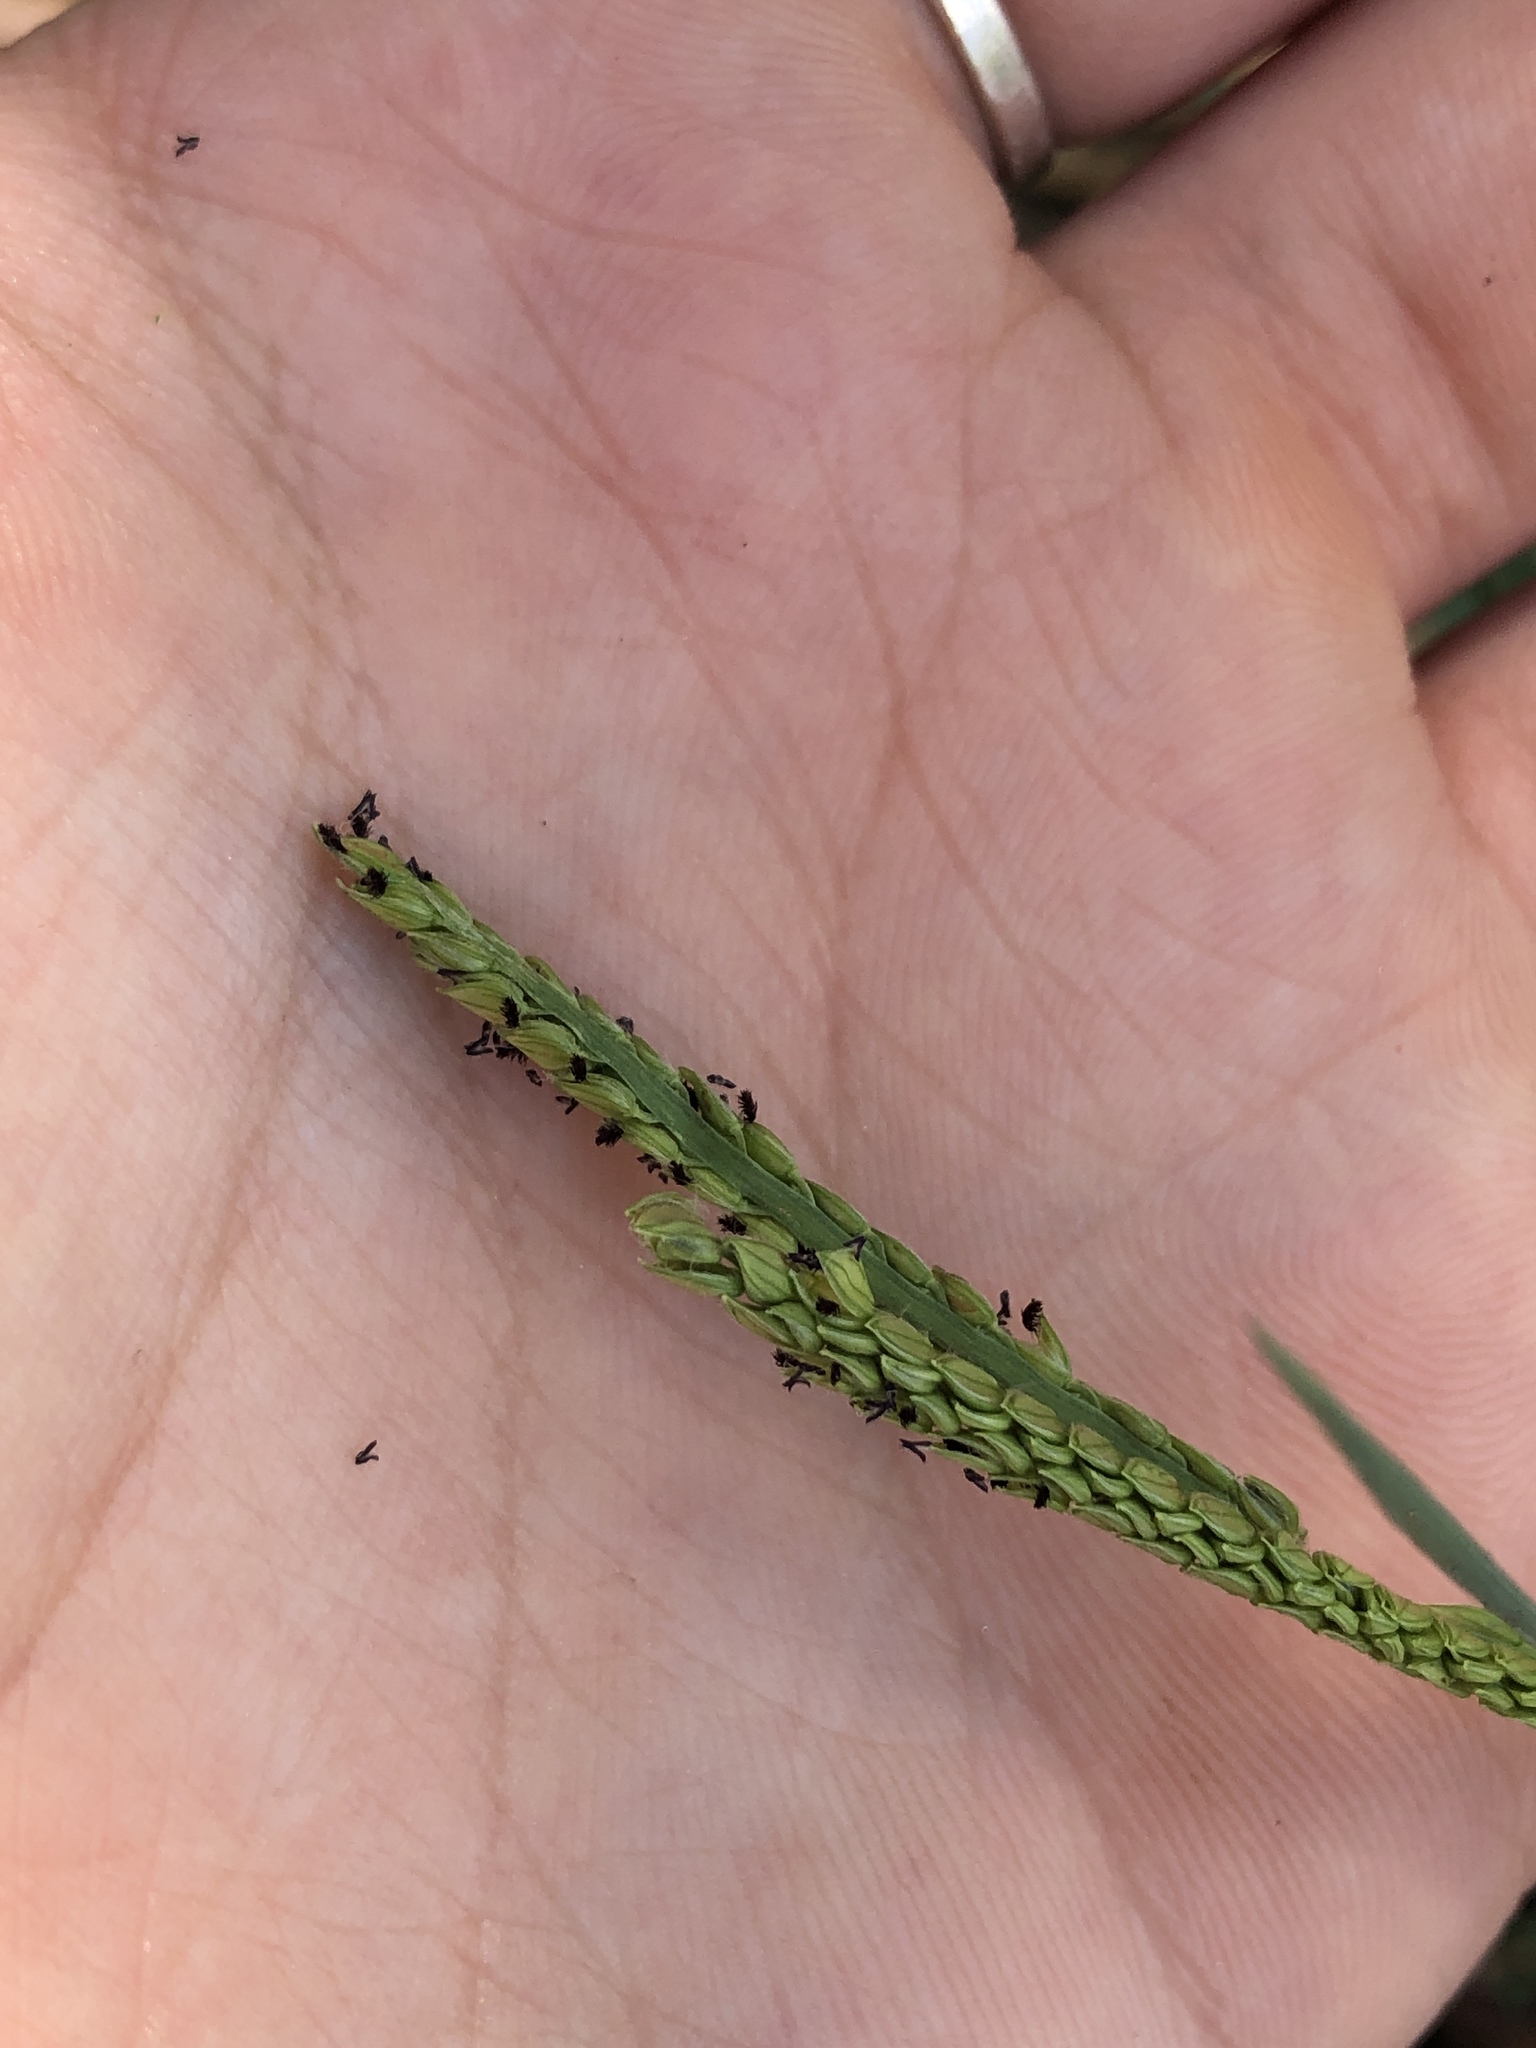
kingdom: Plantae
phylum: Tracheophyta
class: Liliopsida
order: Poales
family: Poaceae
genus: Paspalum
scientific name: Paspalum dilatatum
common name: Dallisgrass
